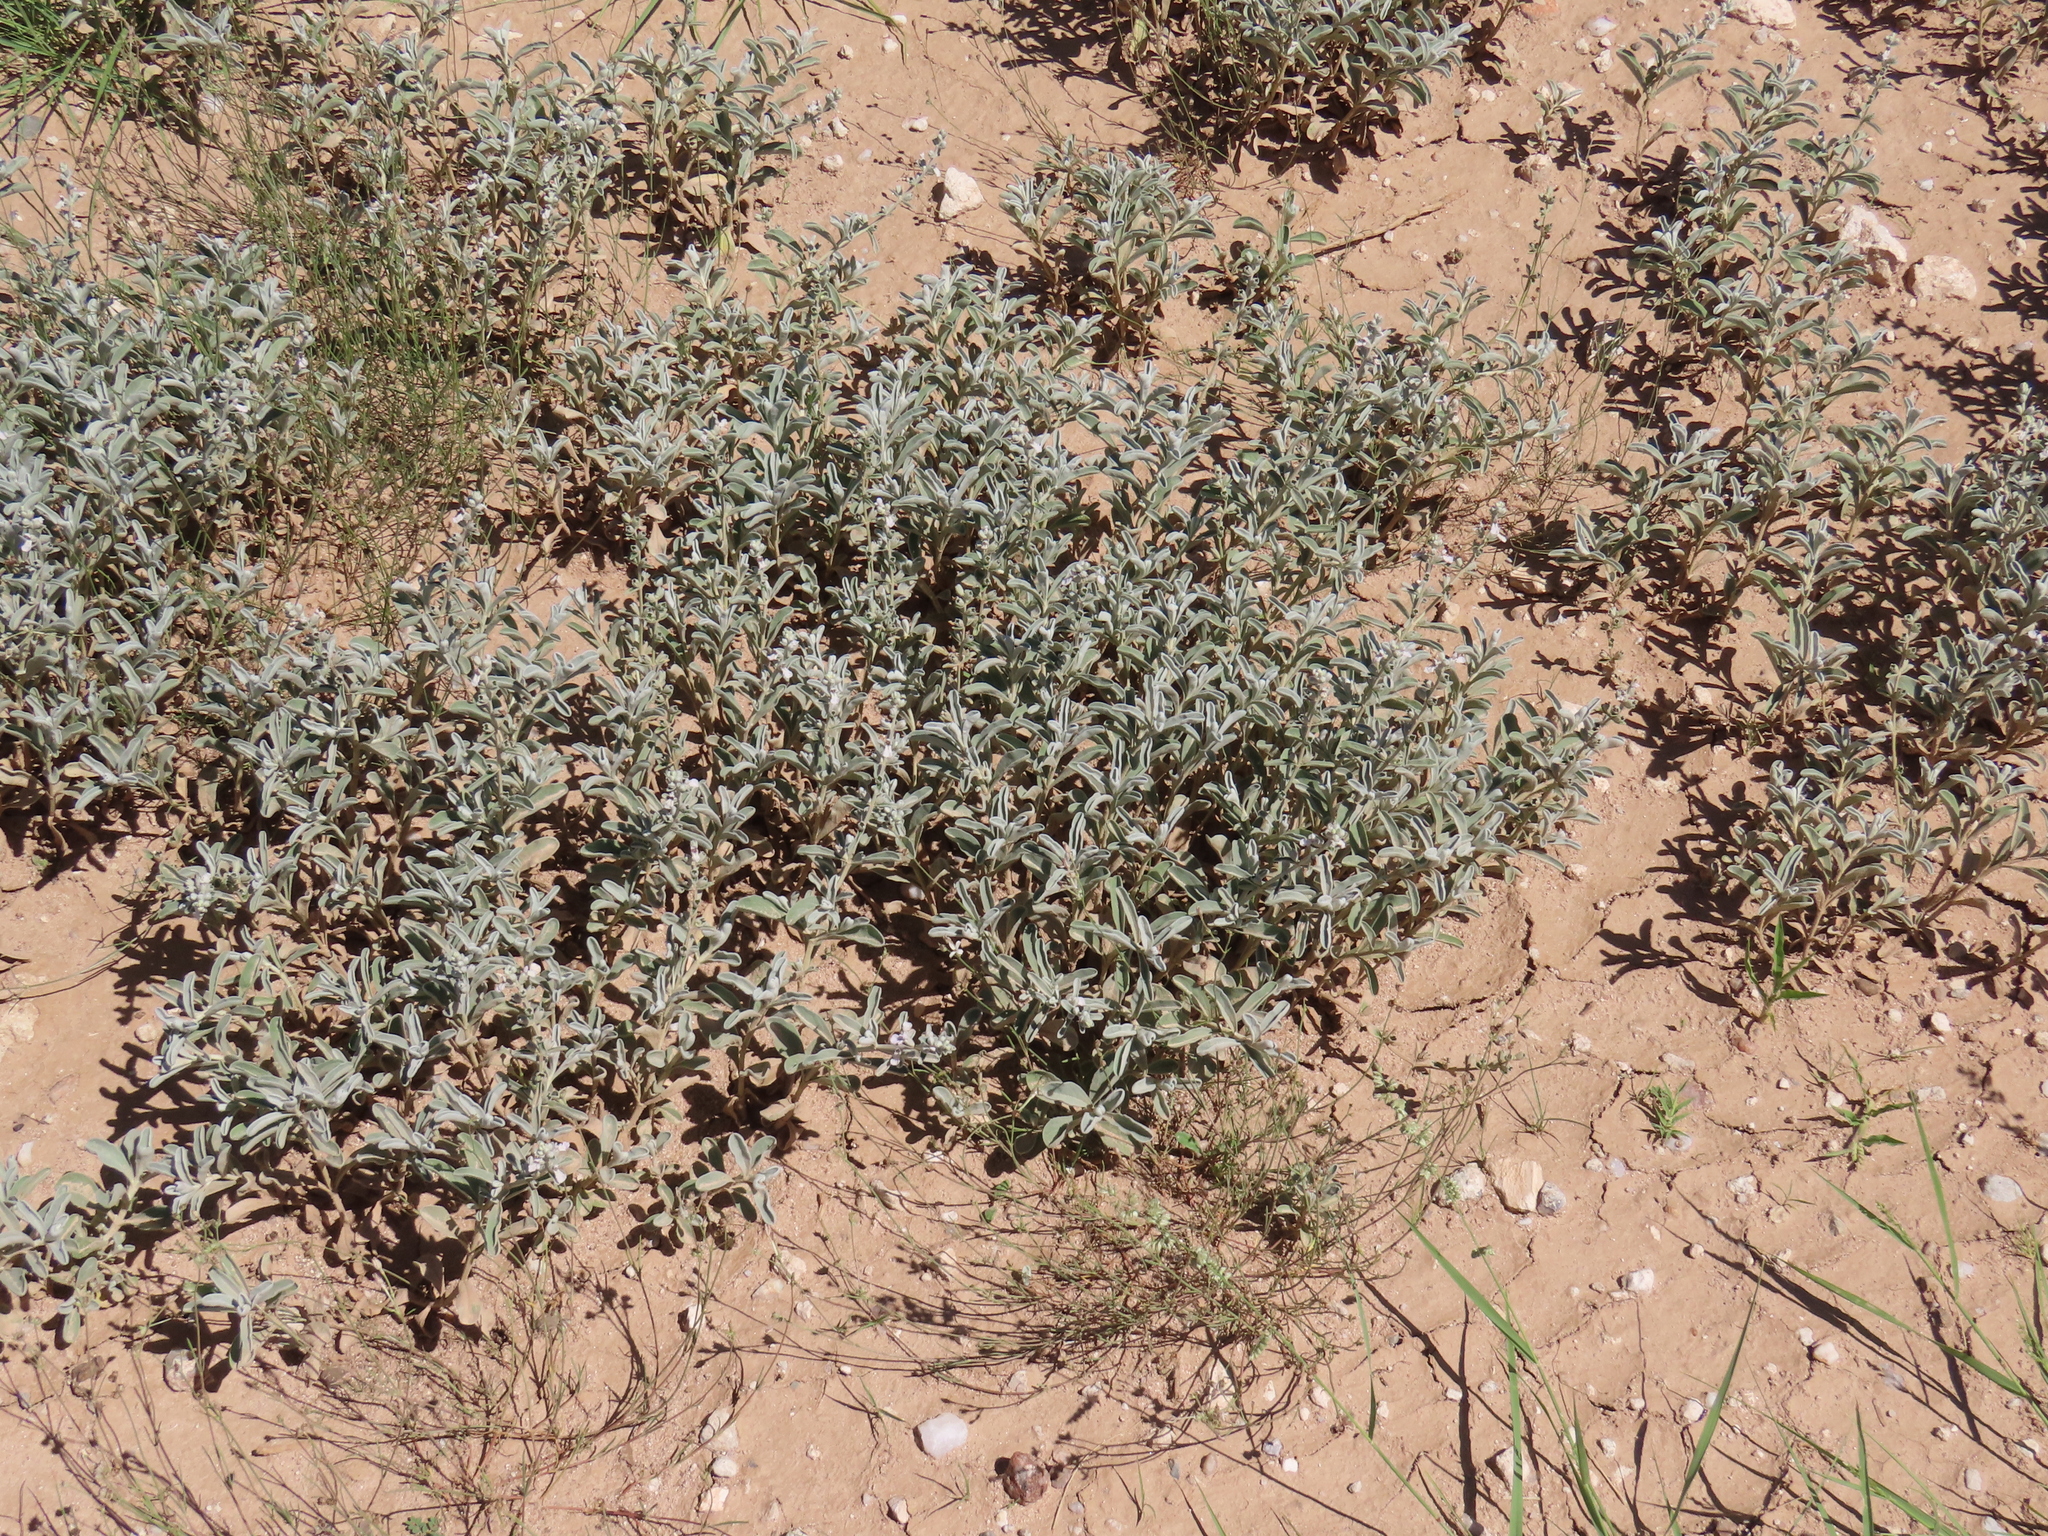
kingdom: Plantae
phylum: Tracheophyta
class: Magnoliopsida
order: Lamiales
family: Lamiaceae
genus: Stachys
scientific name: Stachys spathulata
